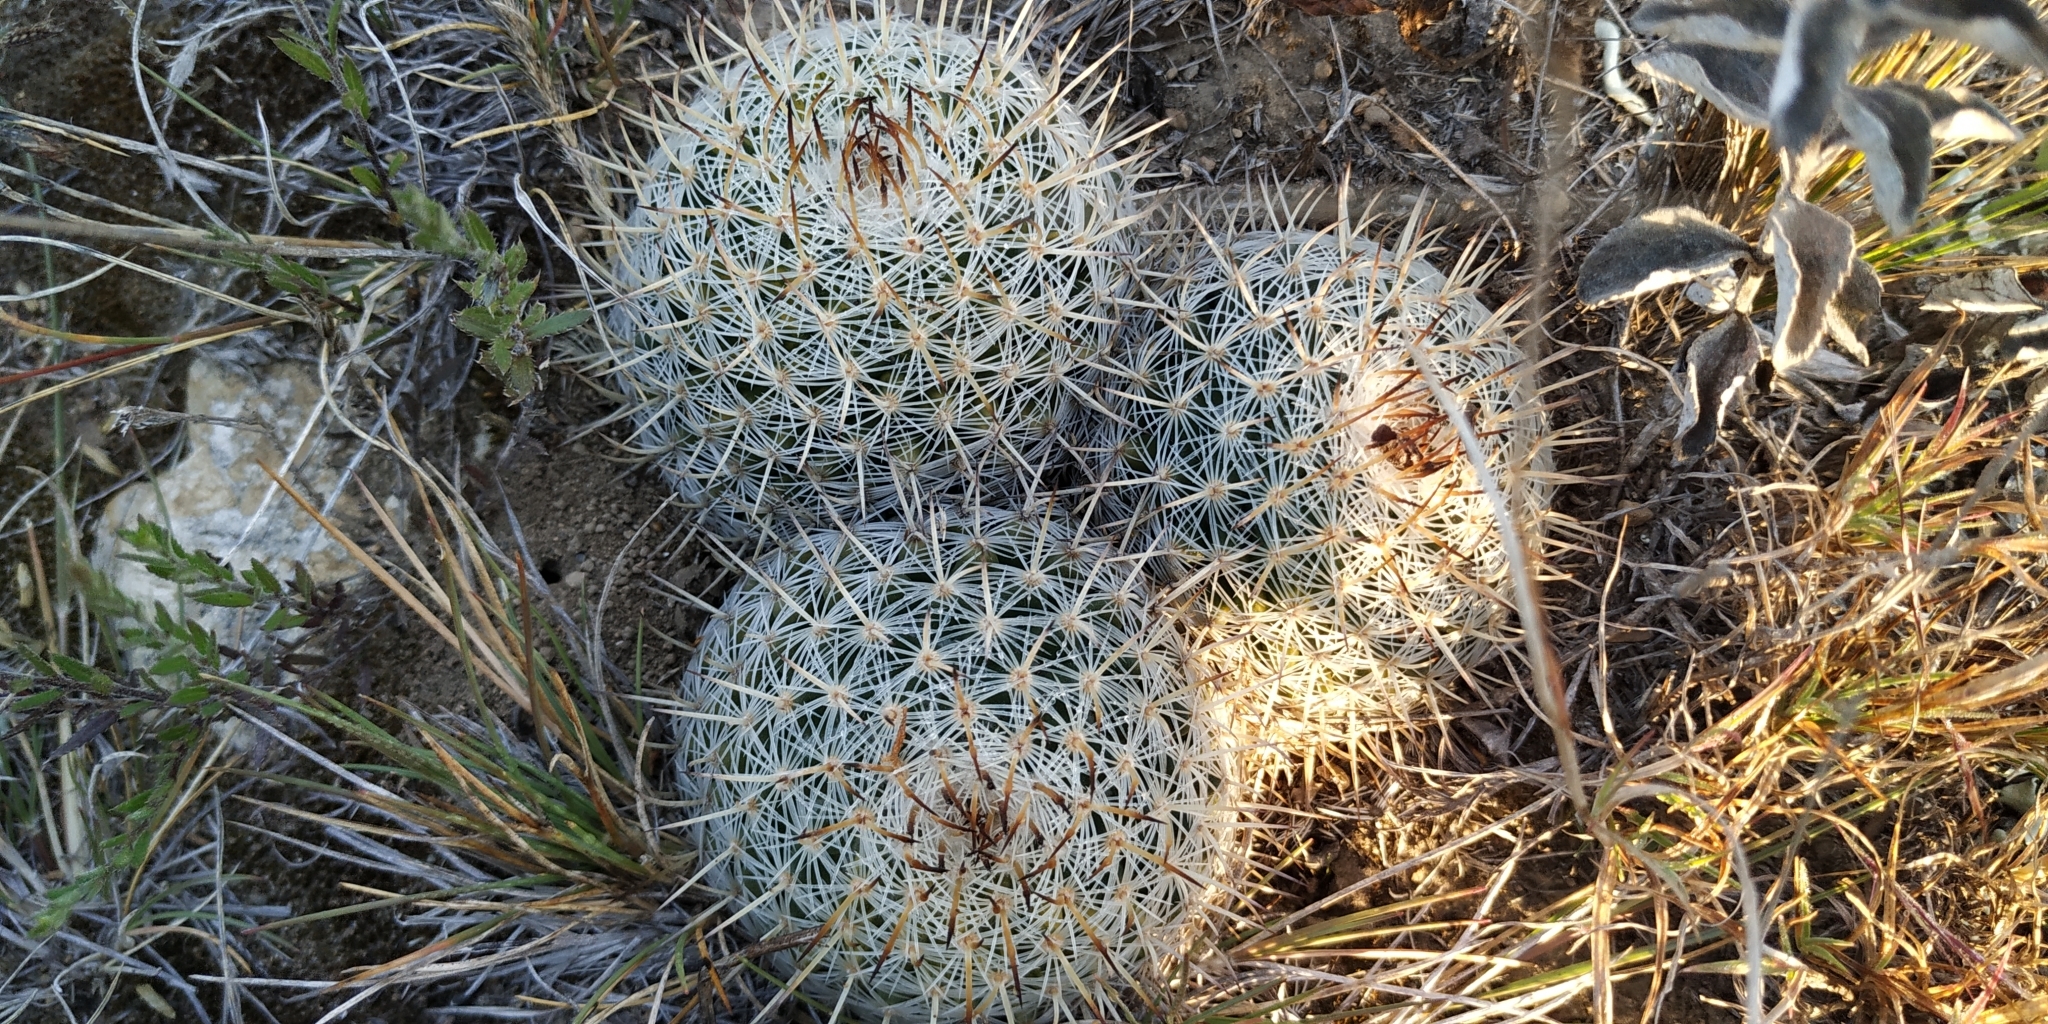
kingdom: Plantae
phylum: Tracheophyta
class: Magnoliopsida
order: Caryophyllales
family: Cactaceae
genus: Mammillaria
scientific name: Mammillaria haageana
